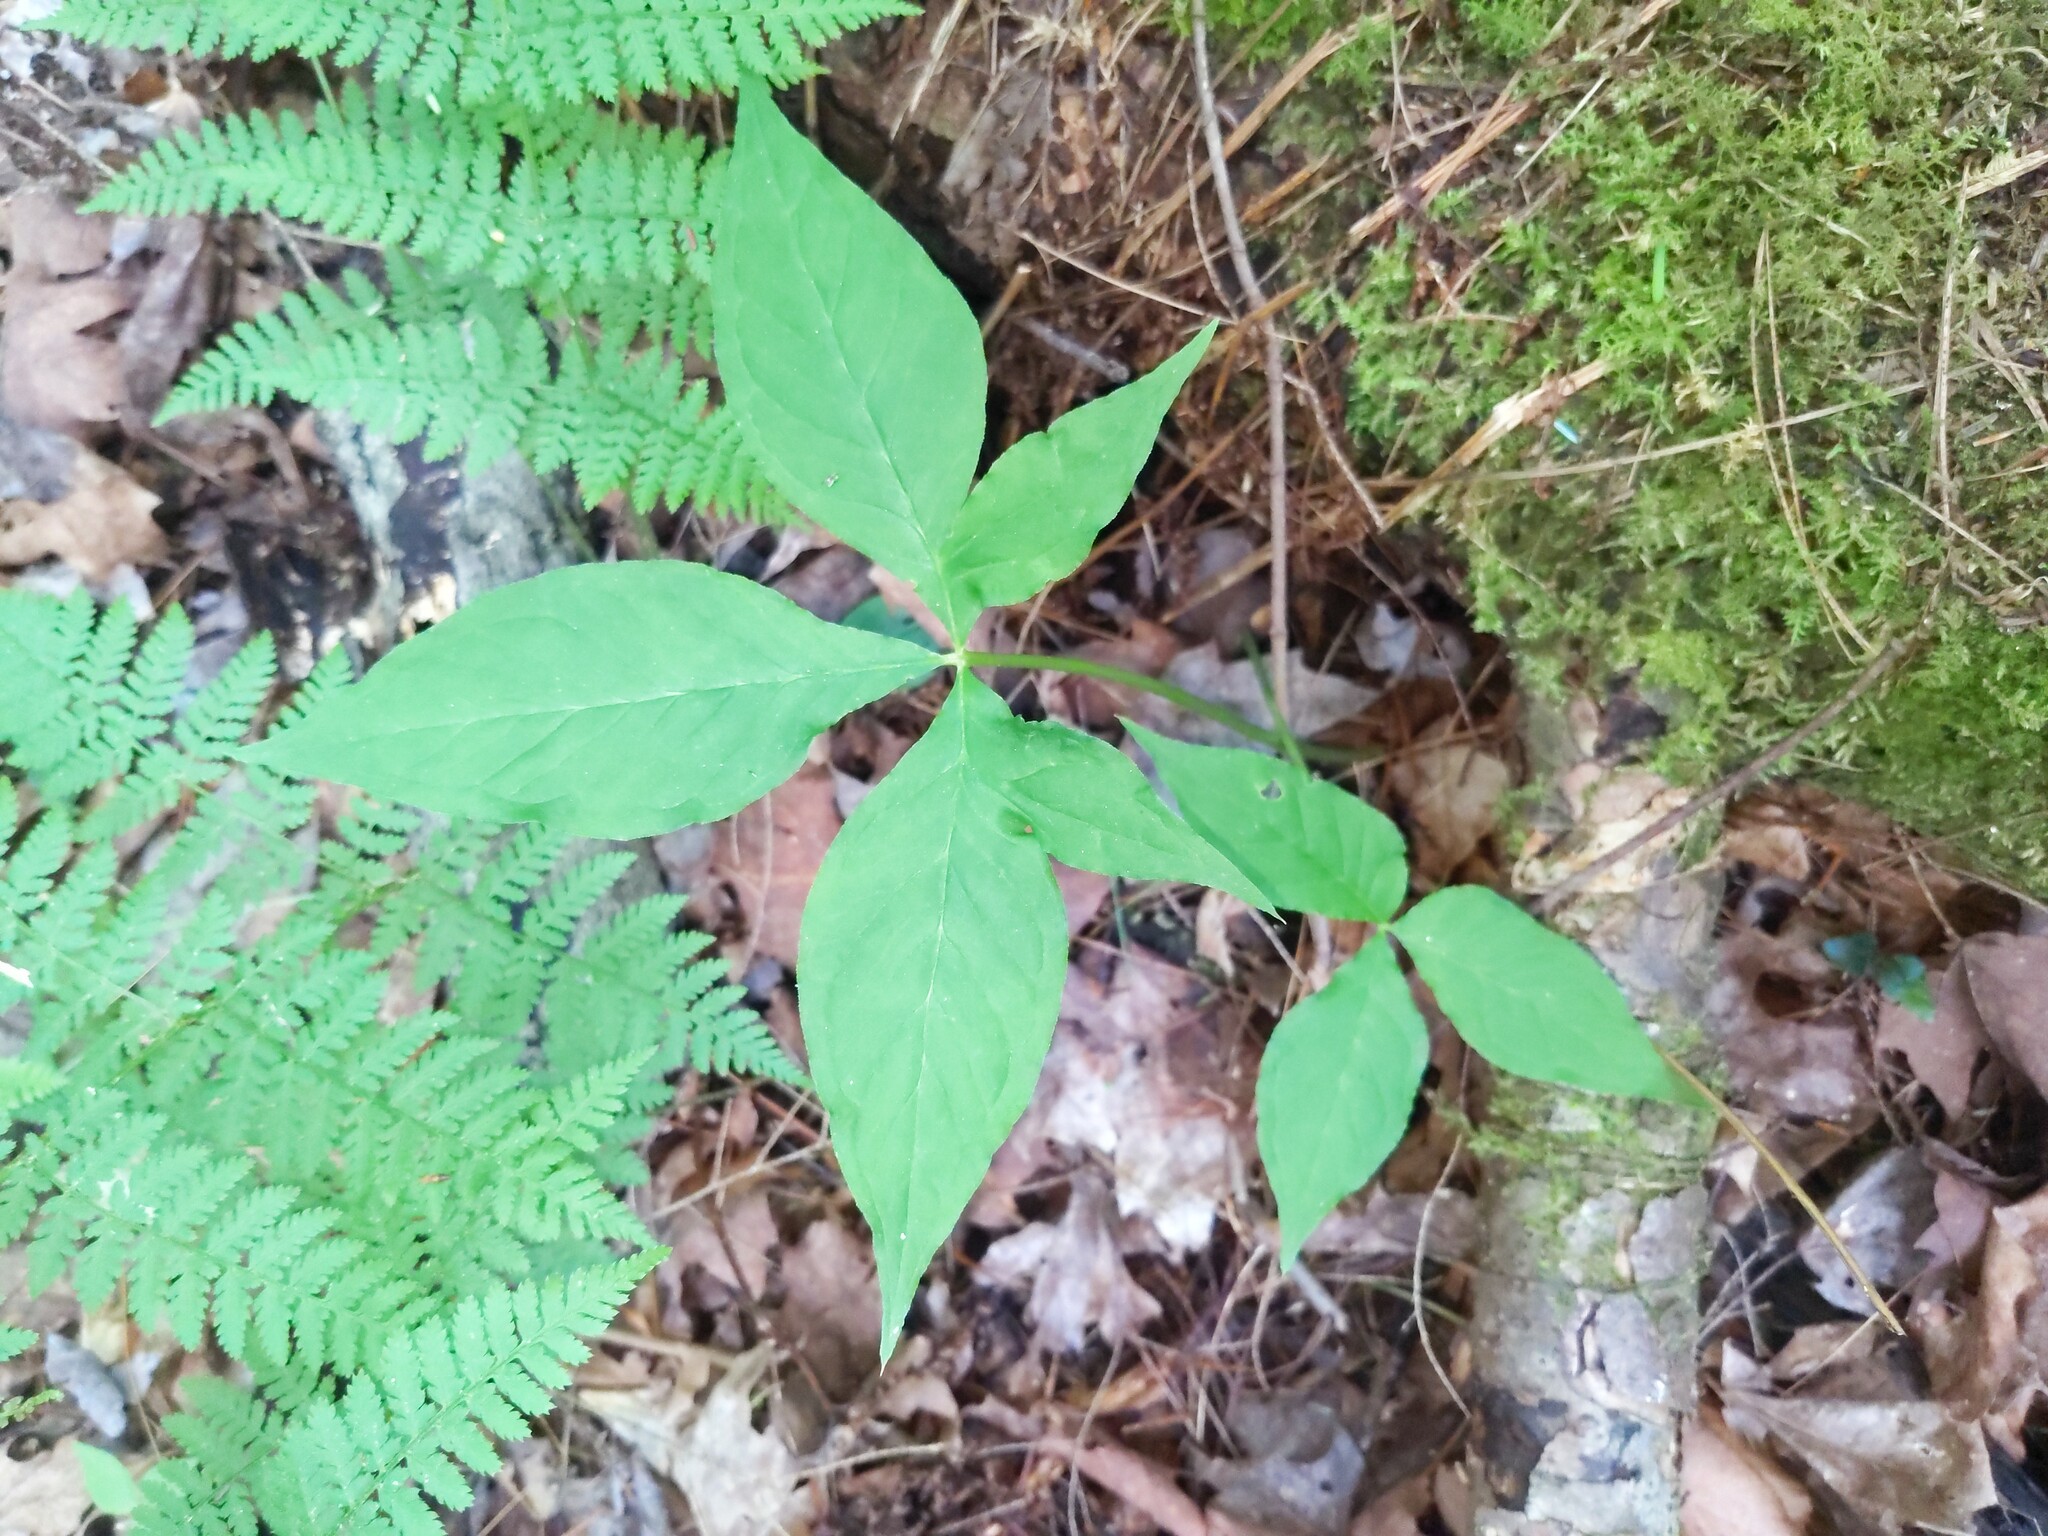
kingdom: Plantae
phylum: Tracheophyta
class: Liliopsida
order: Alismatales
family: Araceae
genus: Arisaema
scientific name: Arisaema quinatum
